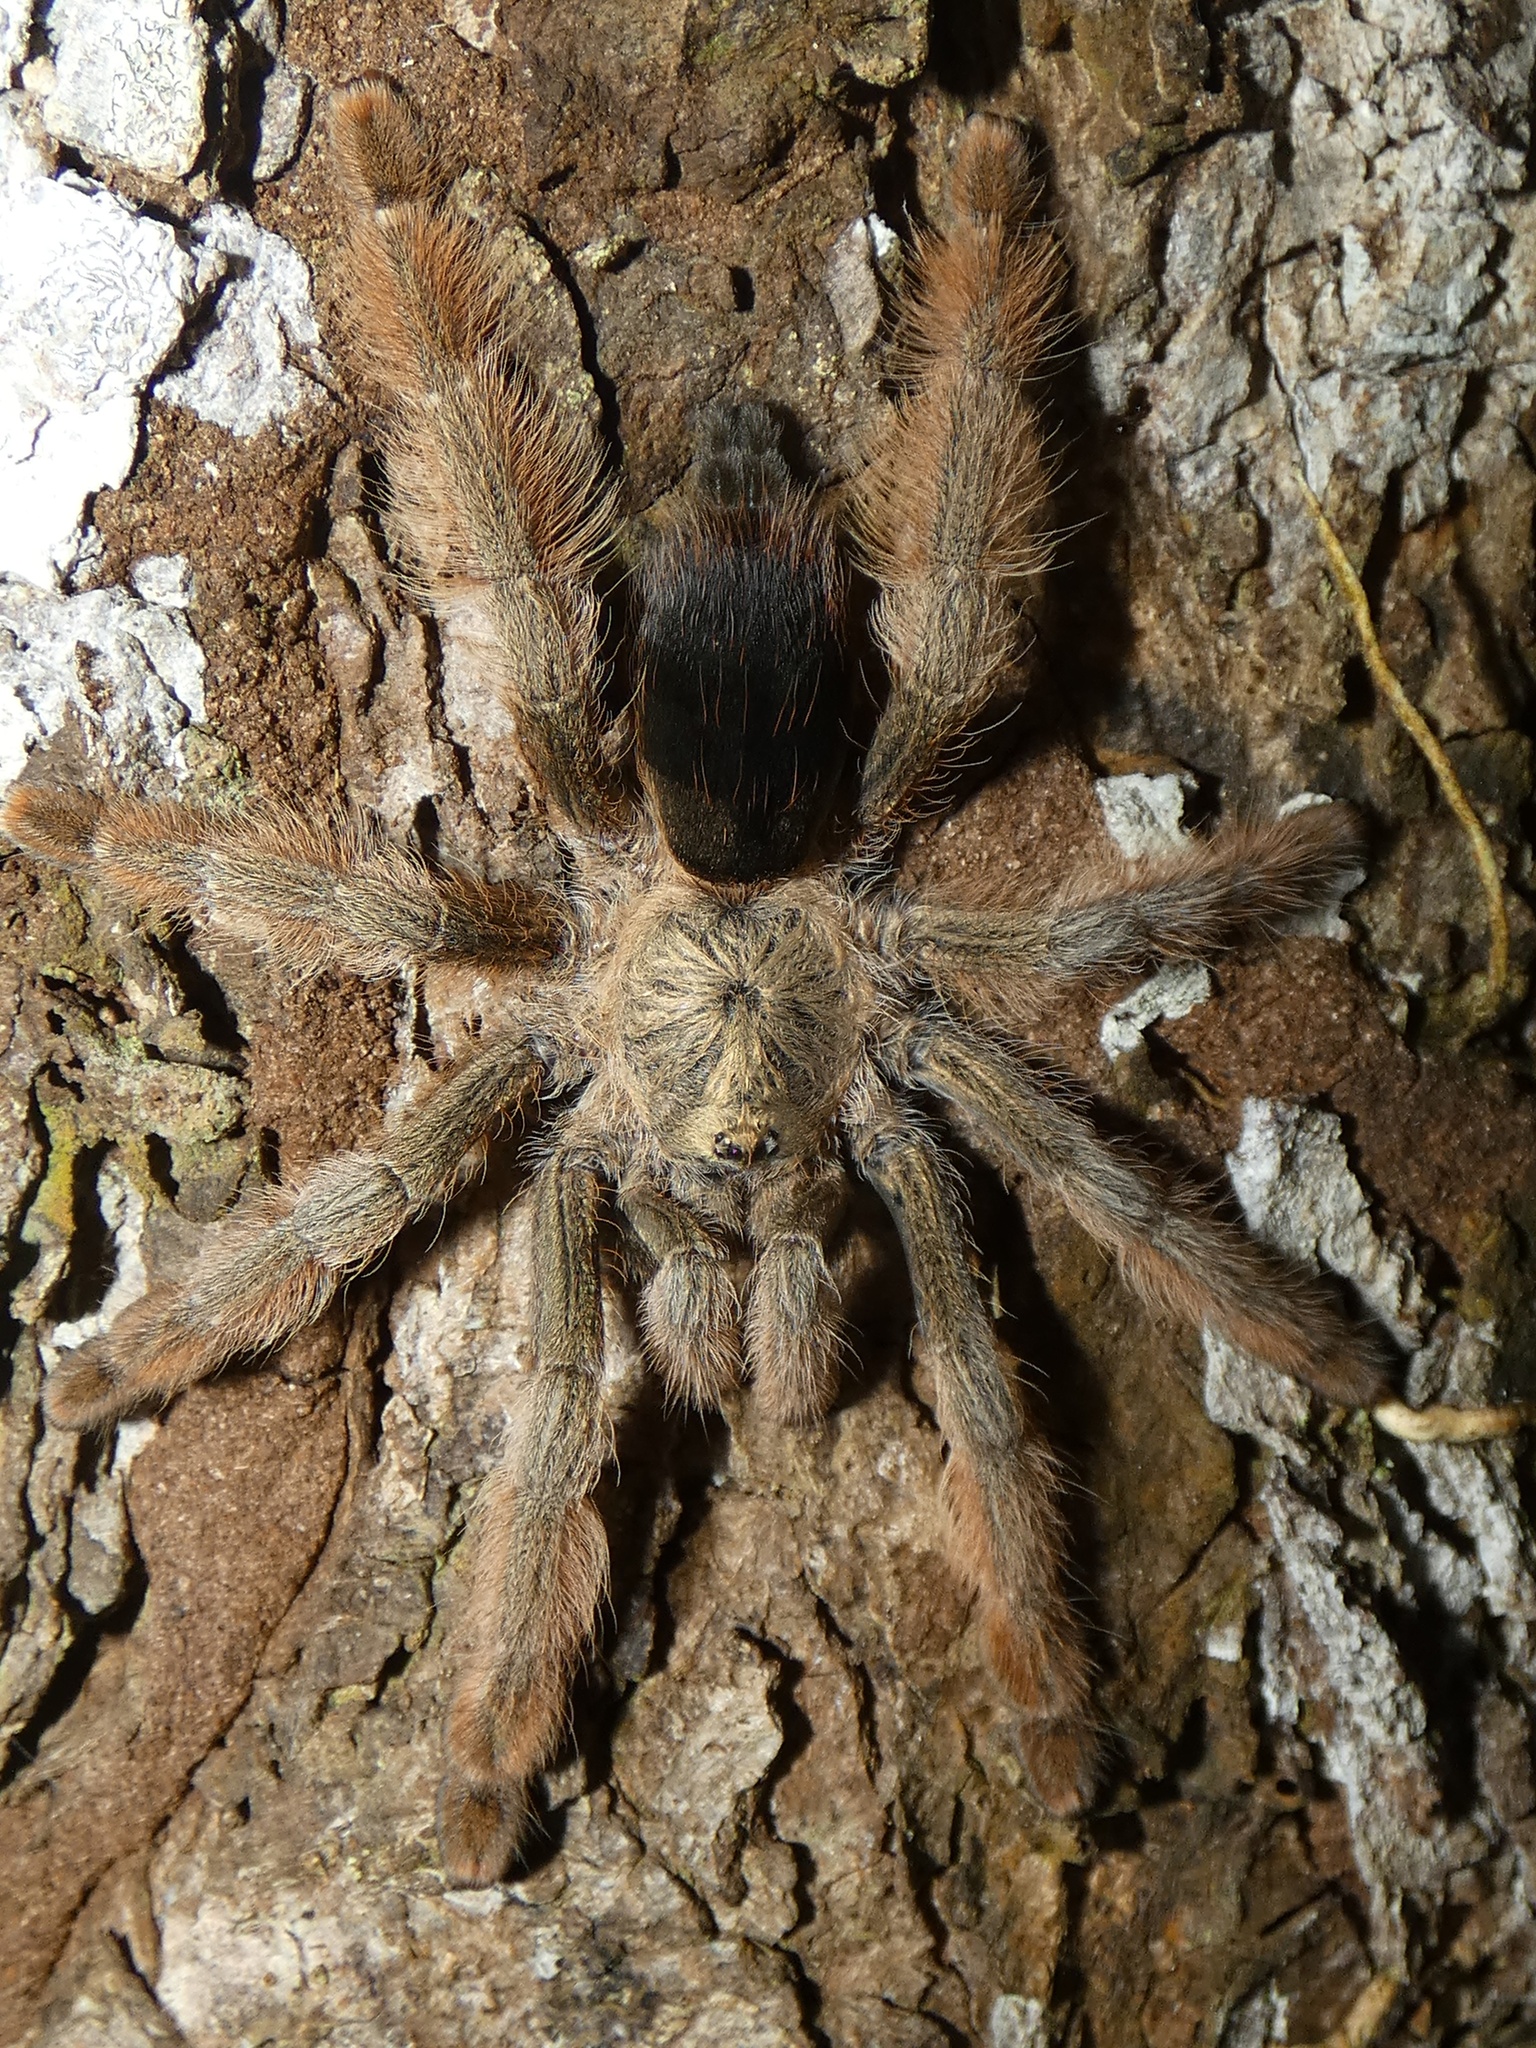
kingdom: Animalia
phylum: Arthropoda
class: Arachnida
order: Araneae
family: Theraphosidae
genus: Psalmopoeus
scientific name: Psalmopoeus pulcher
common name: Tarantula spiders
